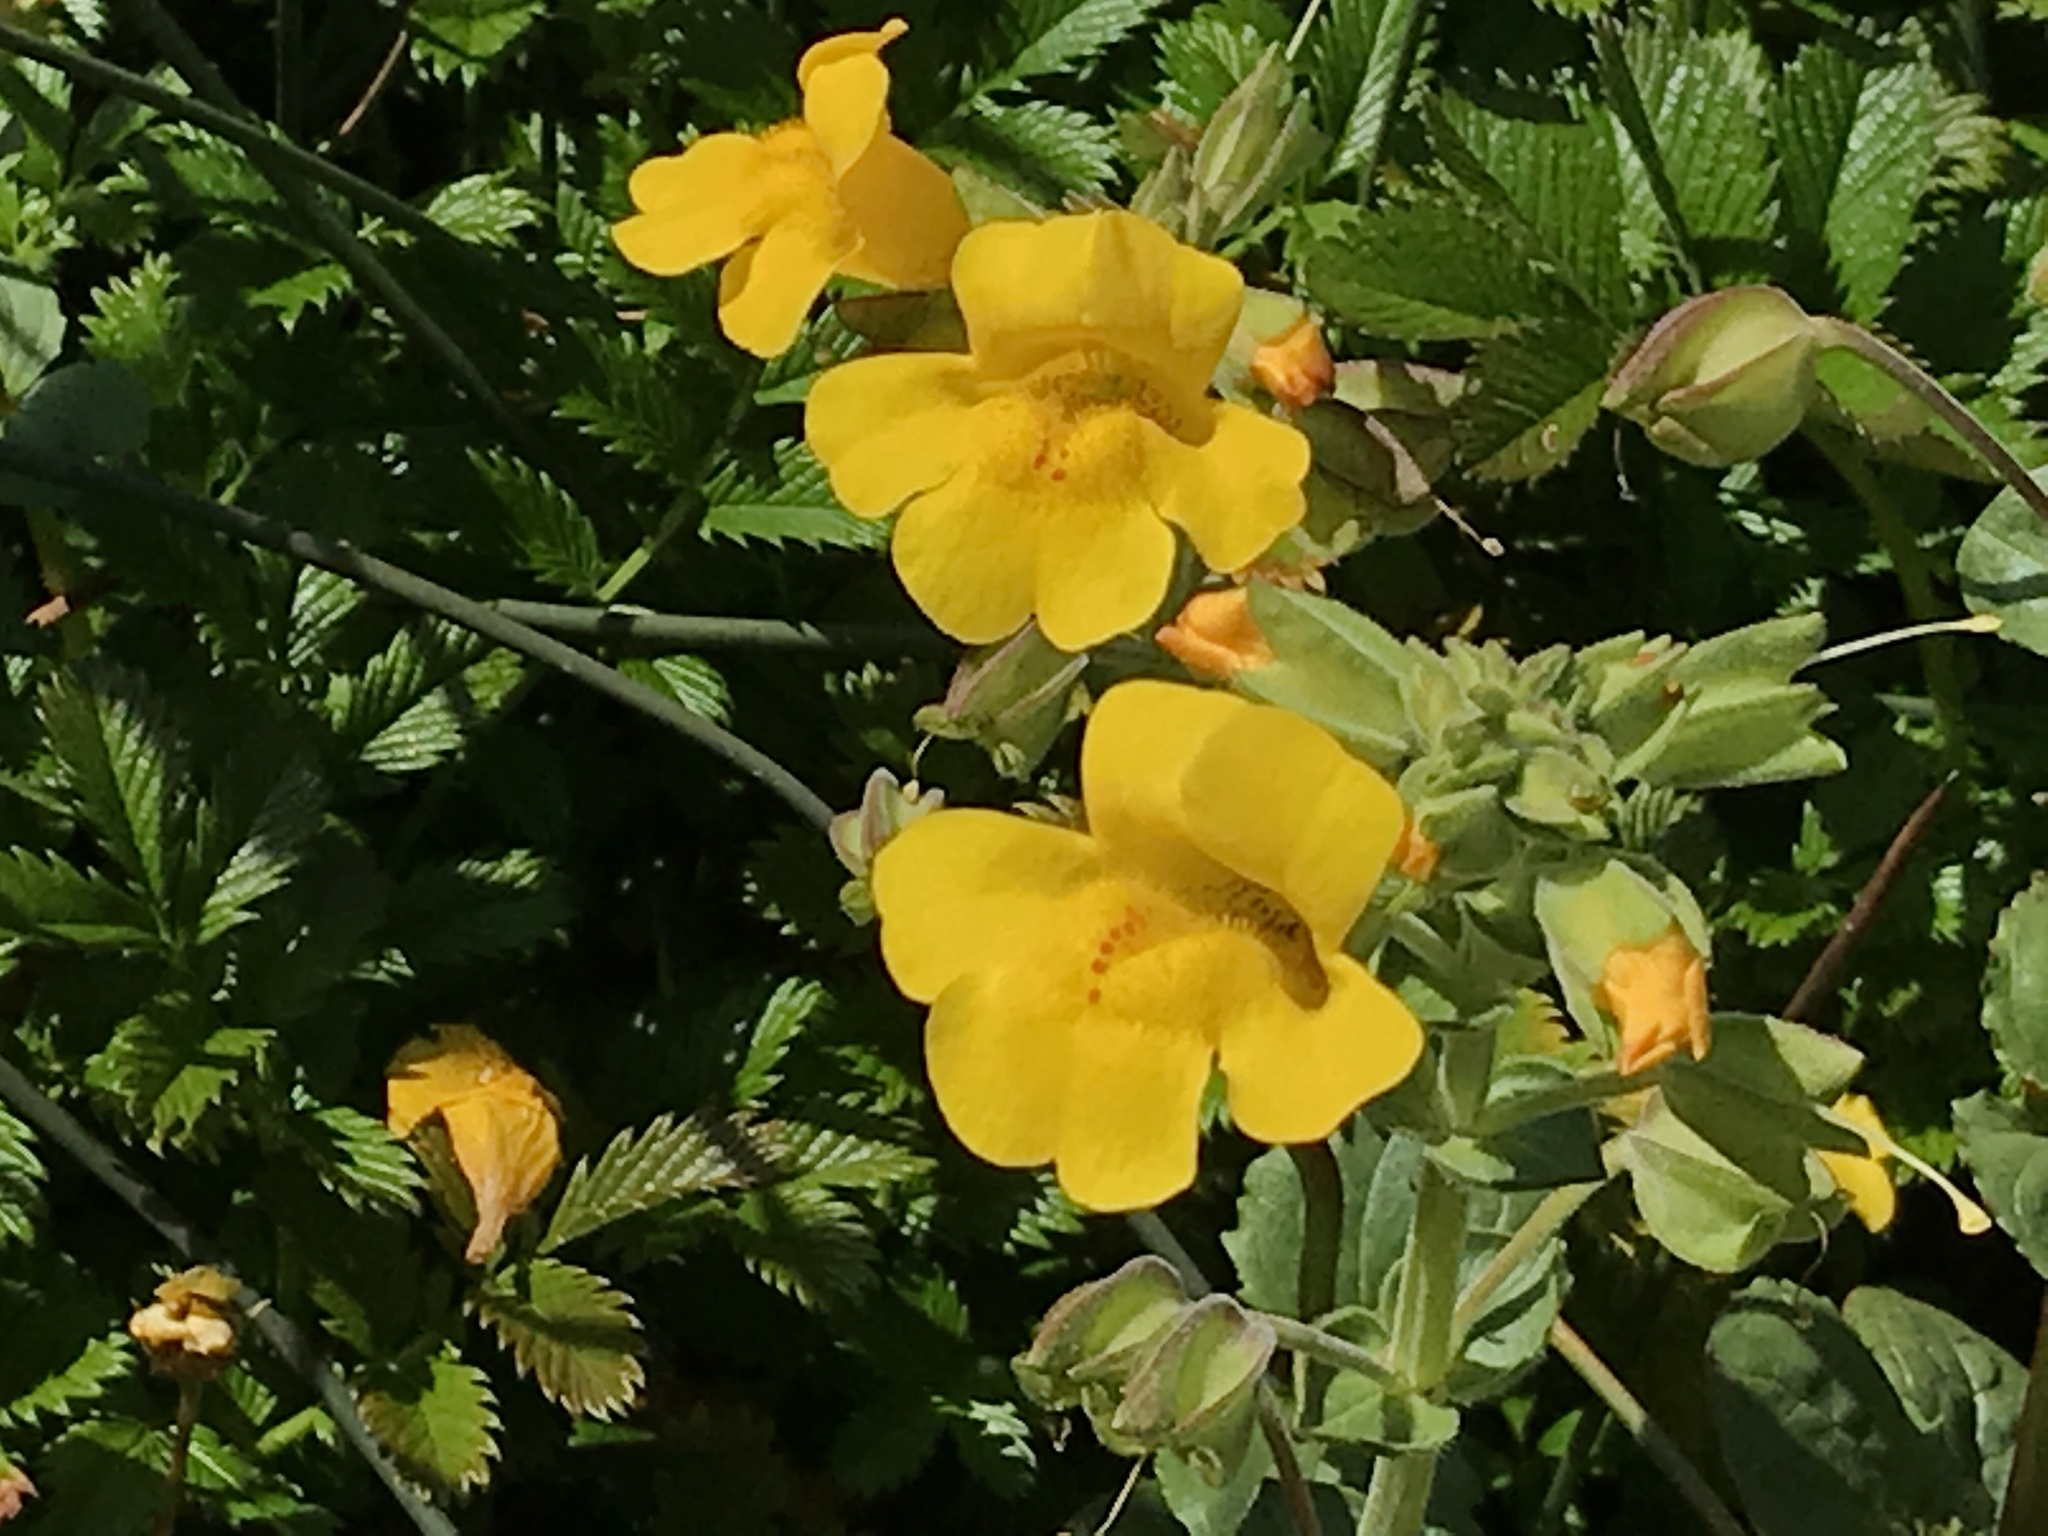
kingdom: Plantae
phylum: Tracheophyta
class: Magnoliopsida
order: Lamiales
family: Phrymaceae
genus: Erythranthe
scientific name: Erythranthe grandis
